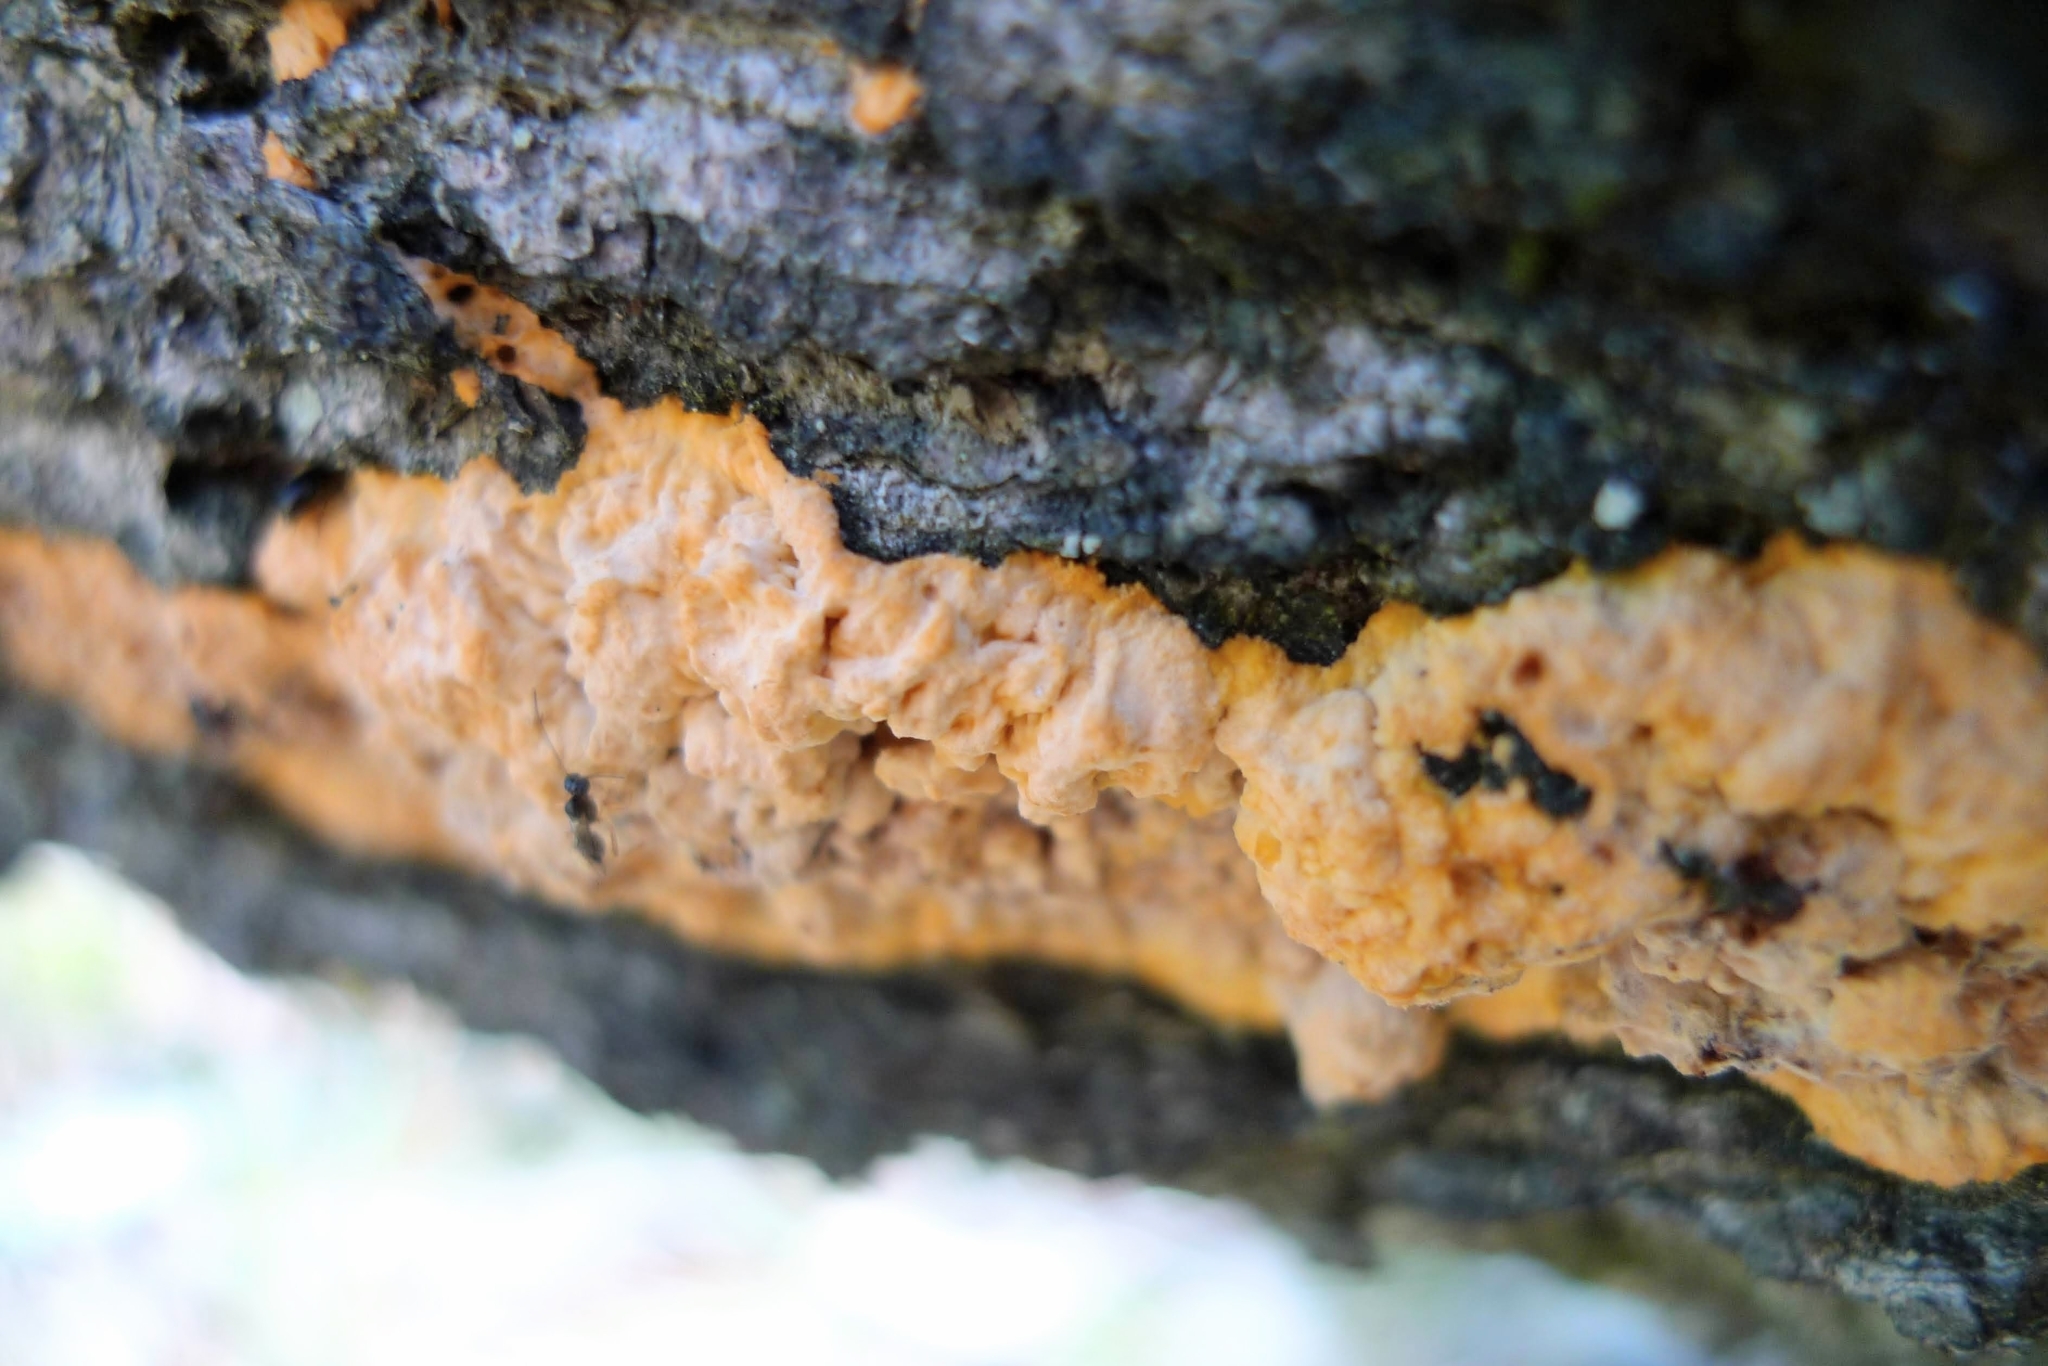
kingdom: Fungi
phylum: Basidiomycota
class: Agaricomycetes
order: Polyporales
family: Meruliaceae
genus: Phlebia
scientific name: Phlebia radiata
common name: Wrinkled crust
